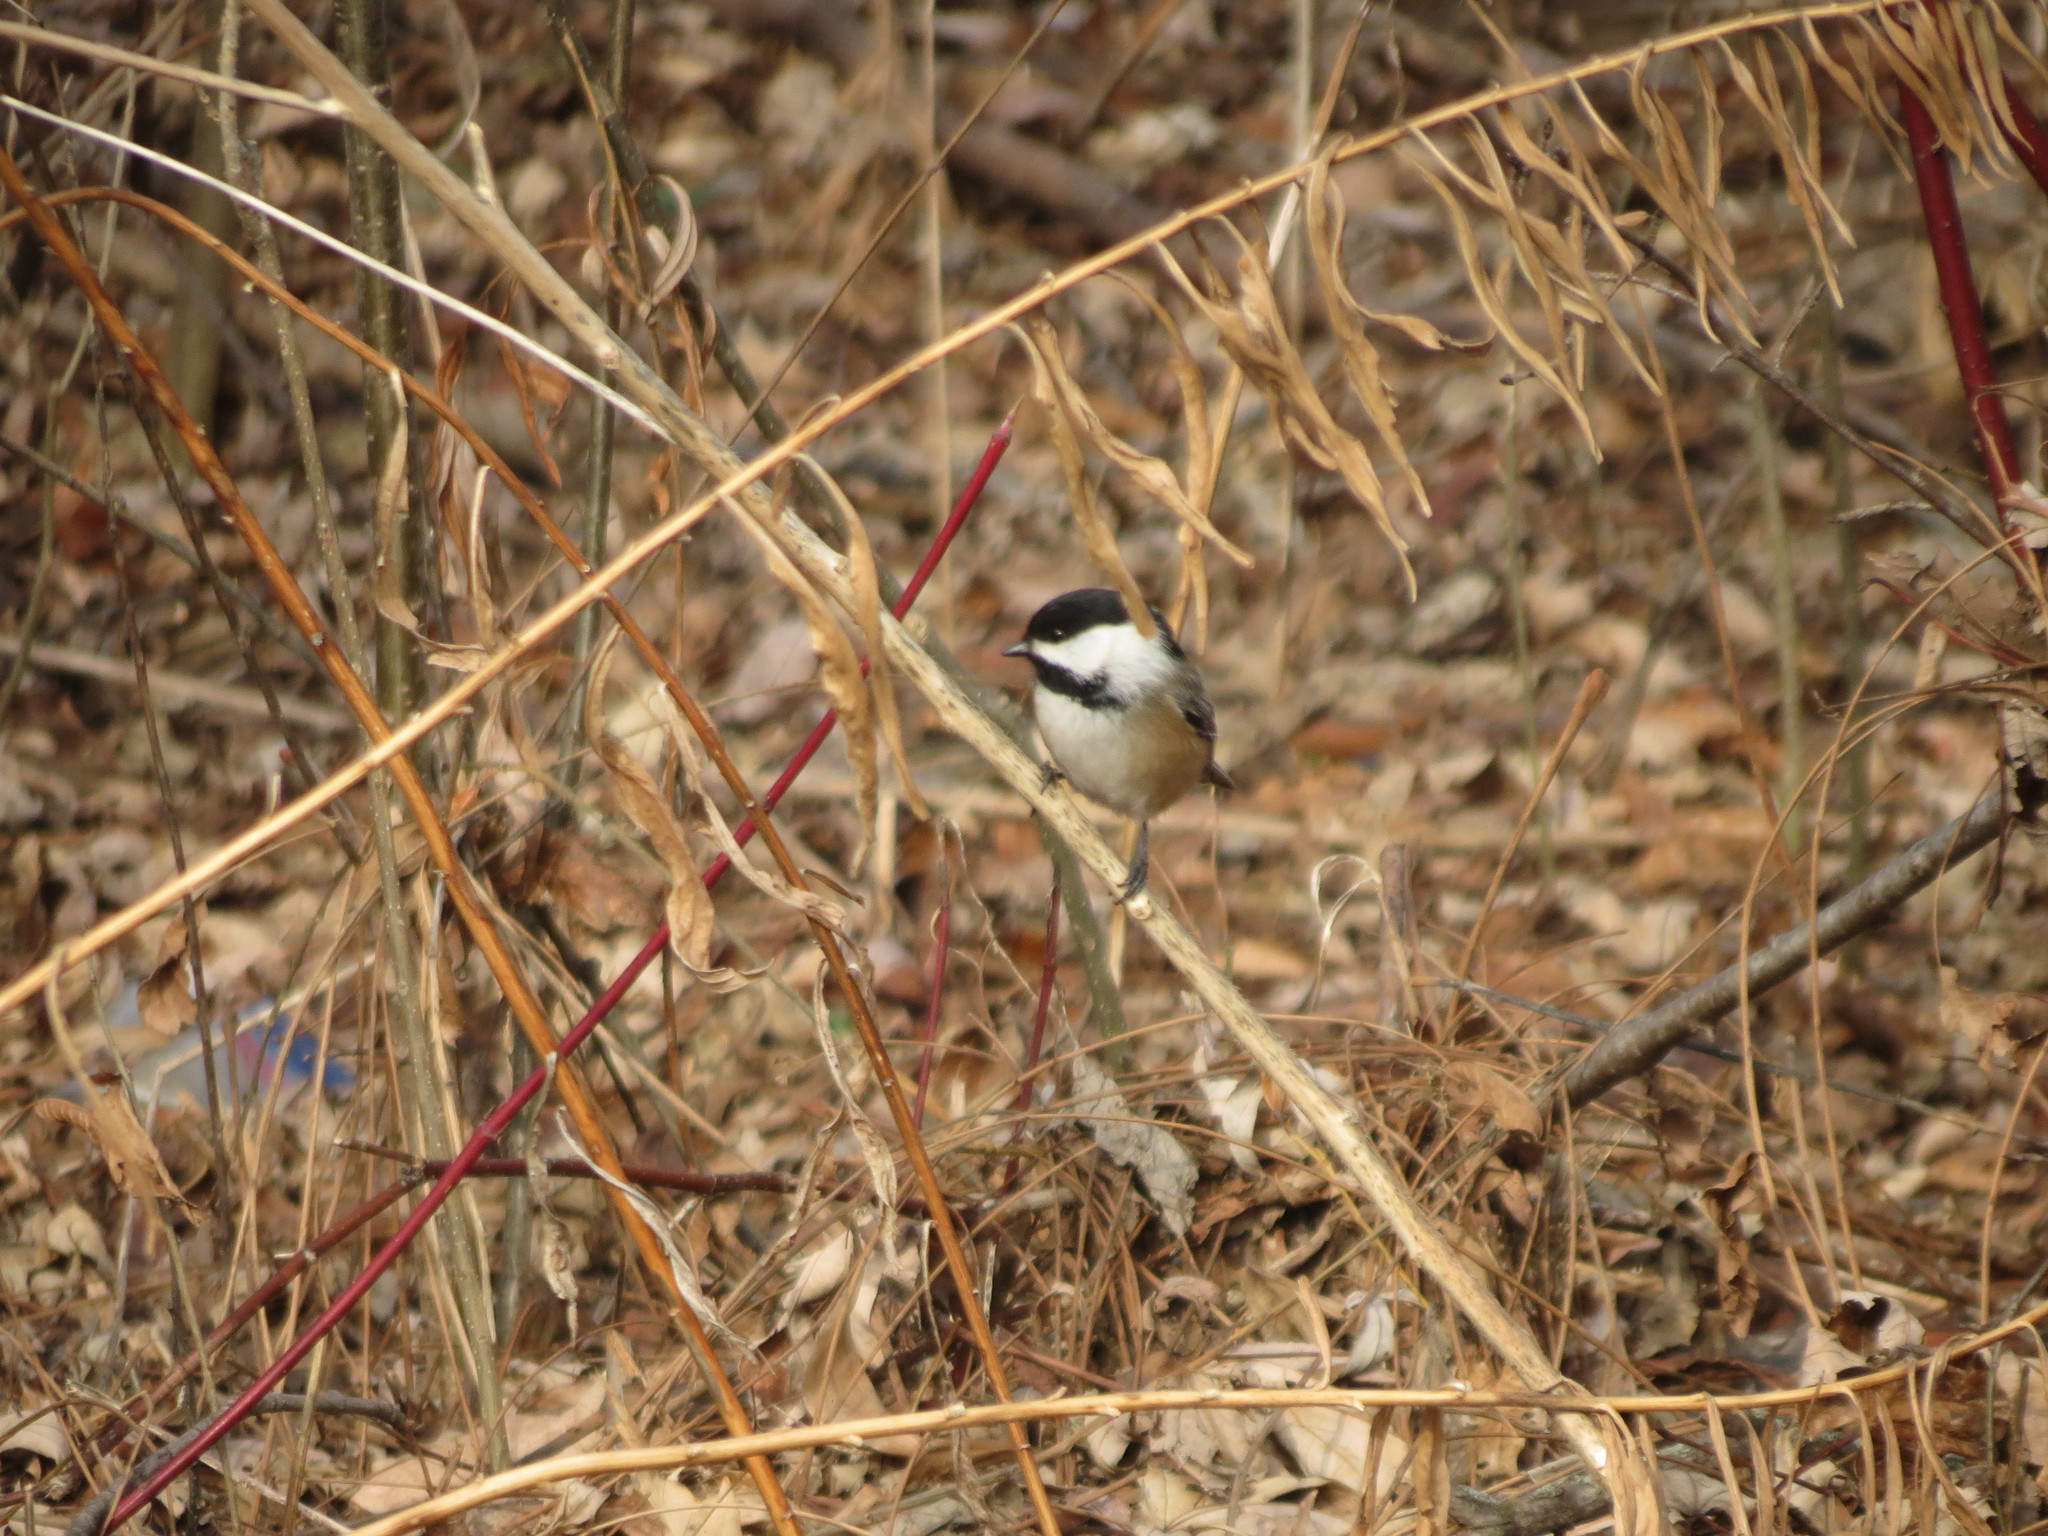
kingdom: Animalia
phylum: Chordata
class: Aves
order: Passeriformes
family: Paridae
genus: Poecile
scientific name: Poecile atricapillus
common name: Black-capped chickadee
